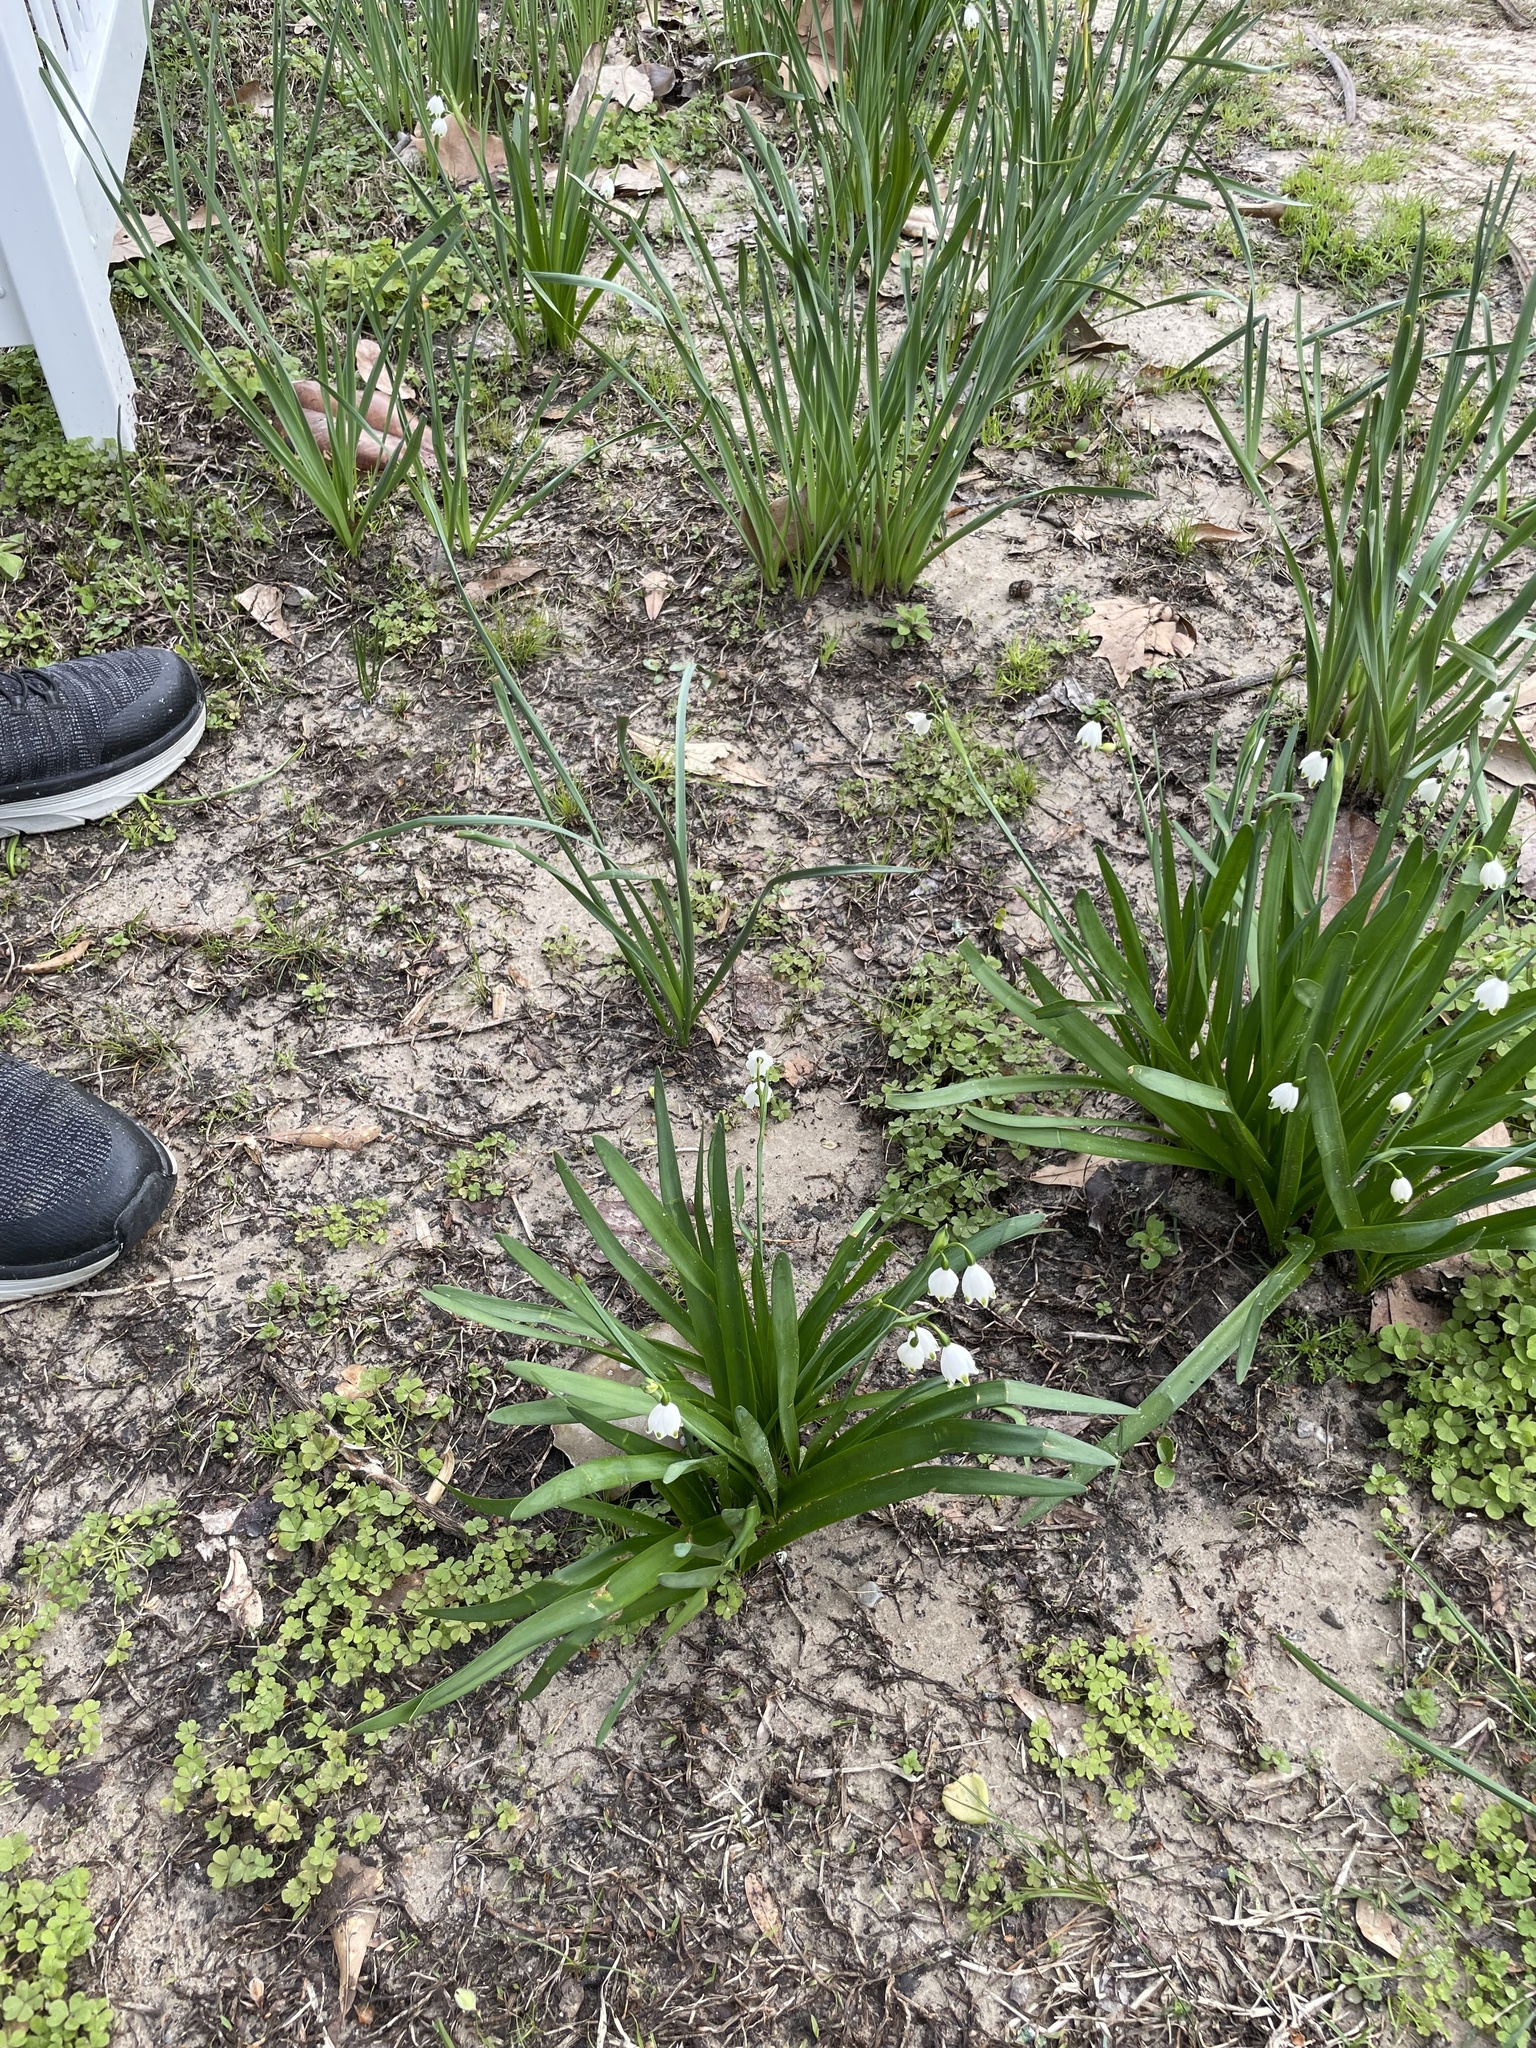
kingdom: Plantae
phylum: Tracheophyta
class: Liliopsida
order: Asparagales
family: Amaryllidaceae
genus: Leucojum
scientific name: Leucojum aestivum
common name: Summer snowflake
